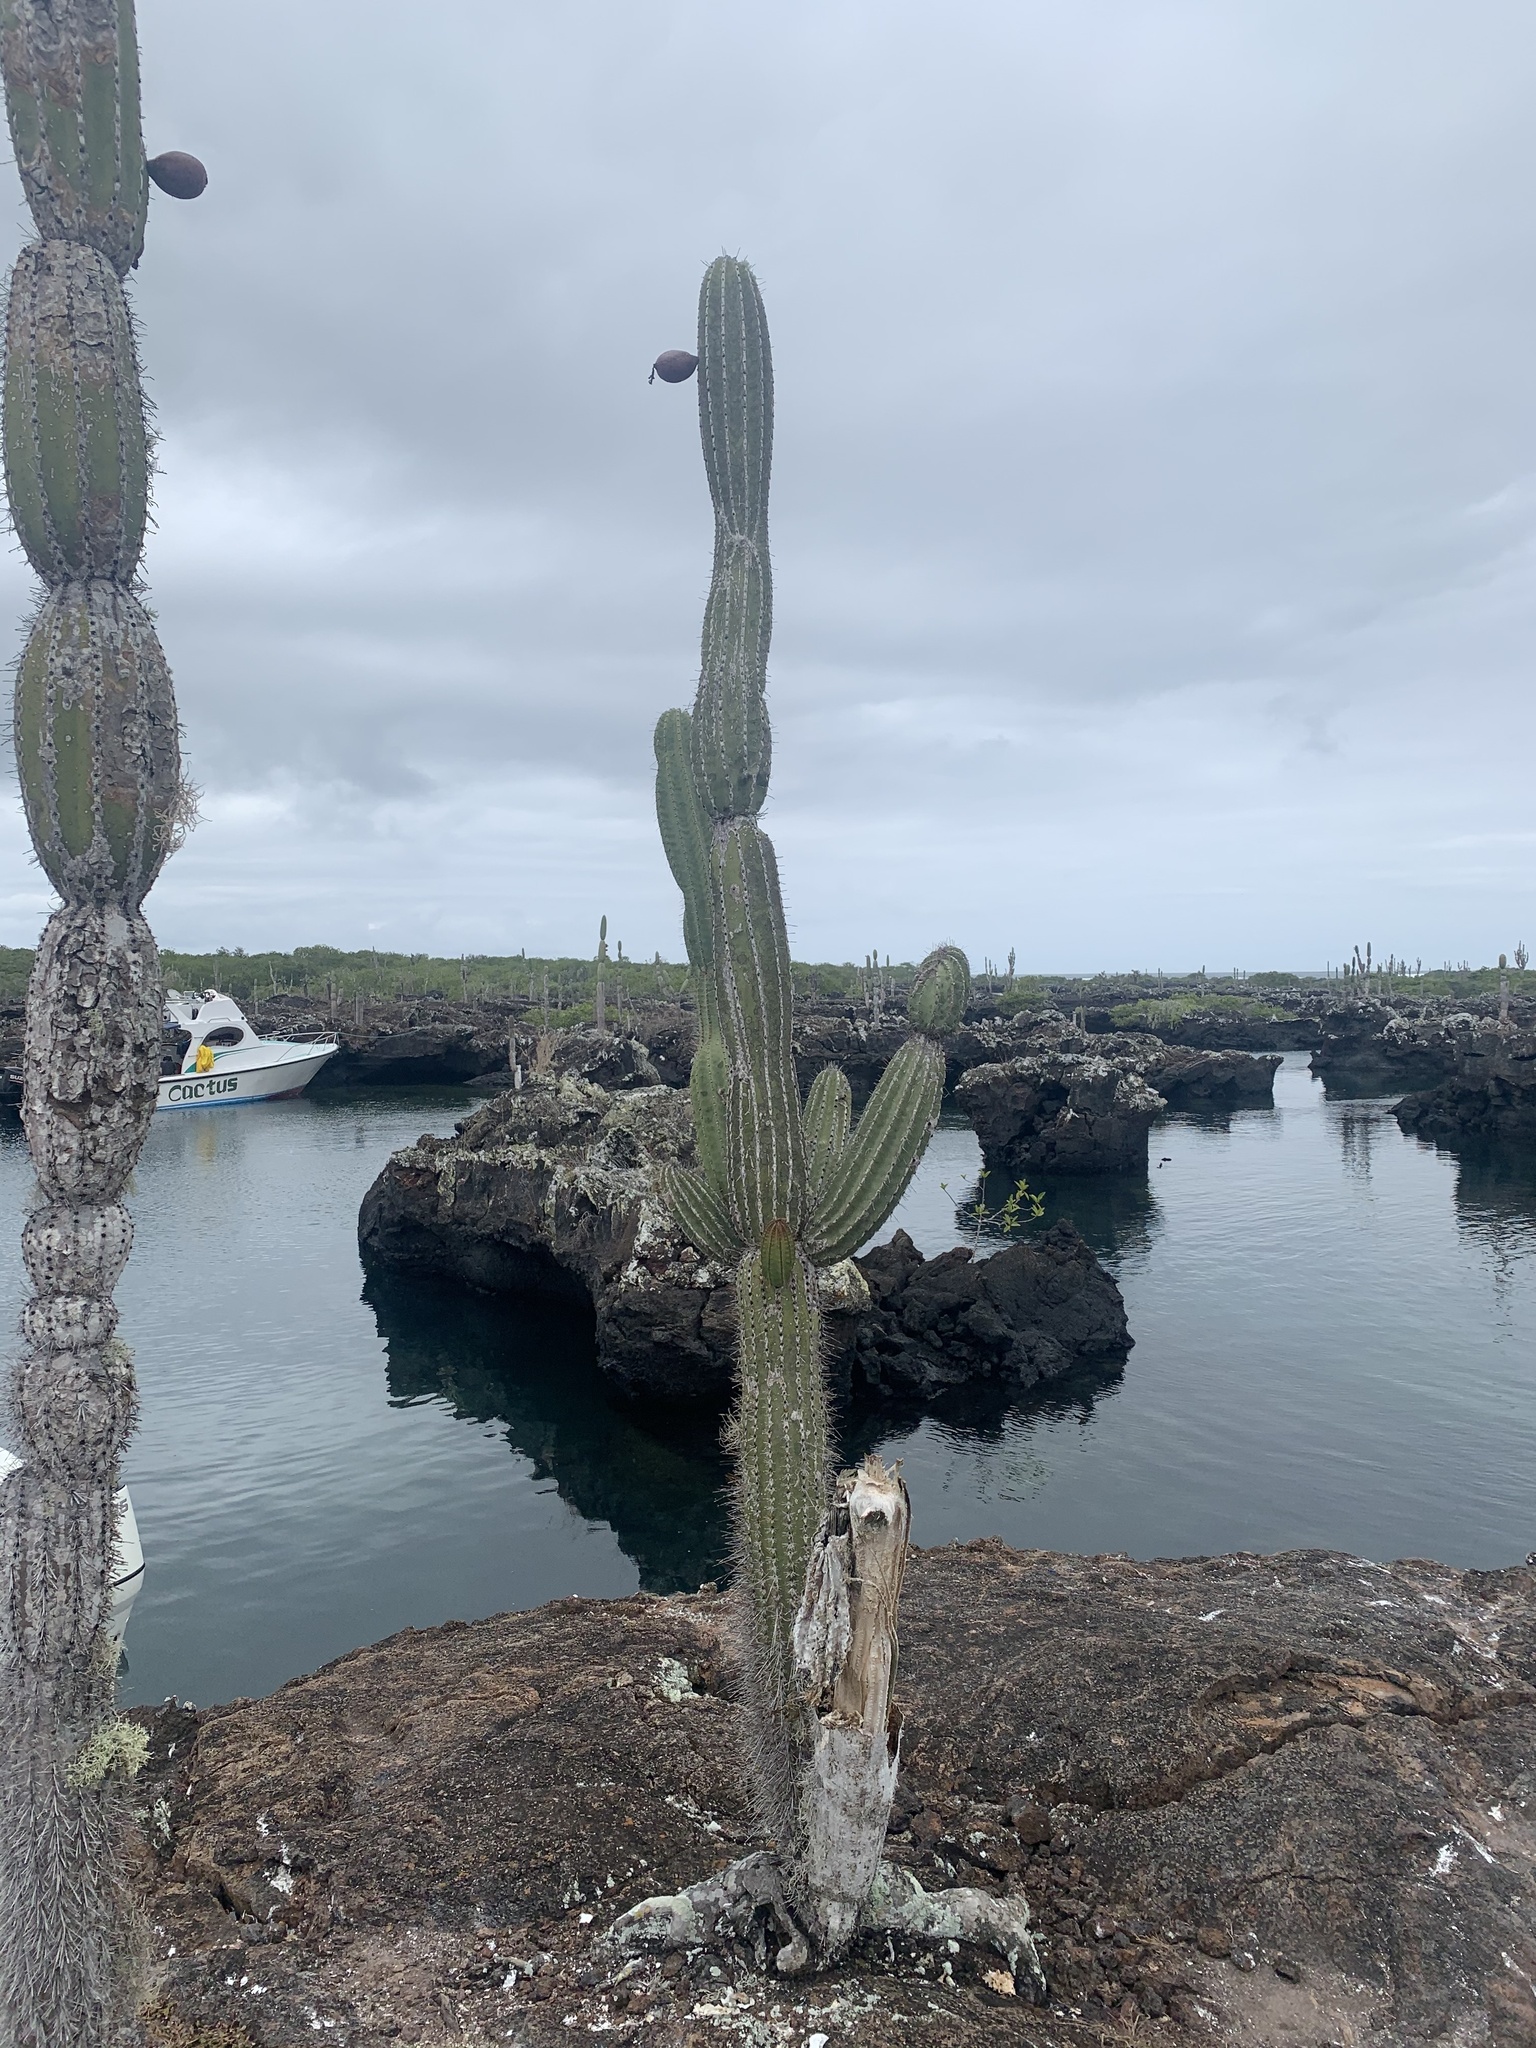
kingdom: Plantae
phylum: Tracheophyta
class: Magnoliopsida
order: Caryophyllales
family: Cactaceae
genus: Jasminocereus
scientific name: Jasminocereus thouarsii
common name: Candelabra cactus
